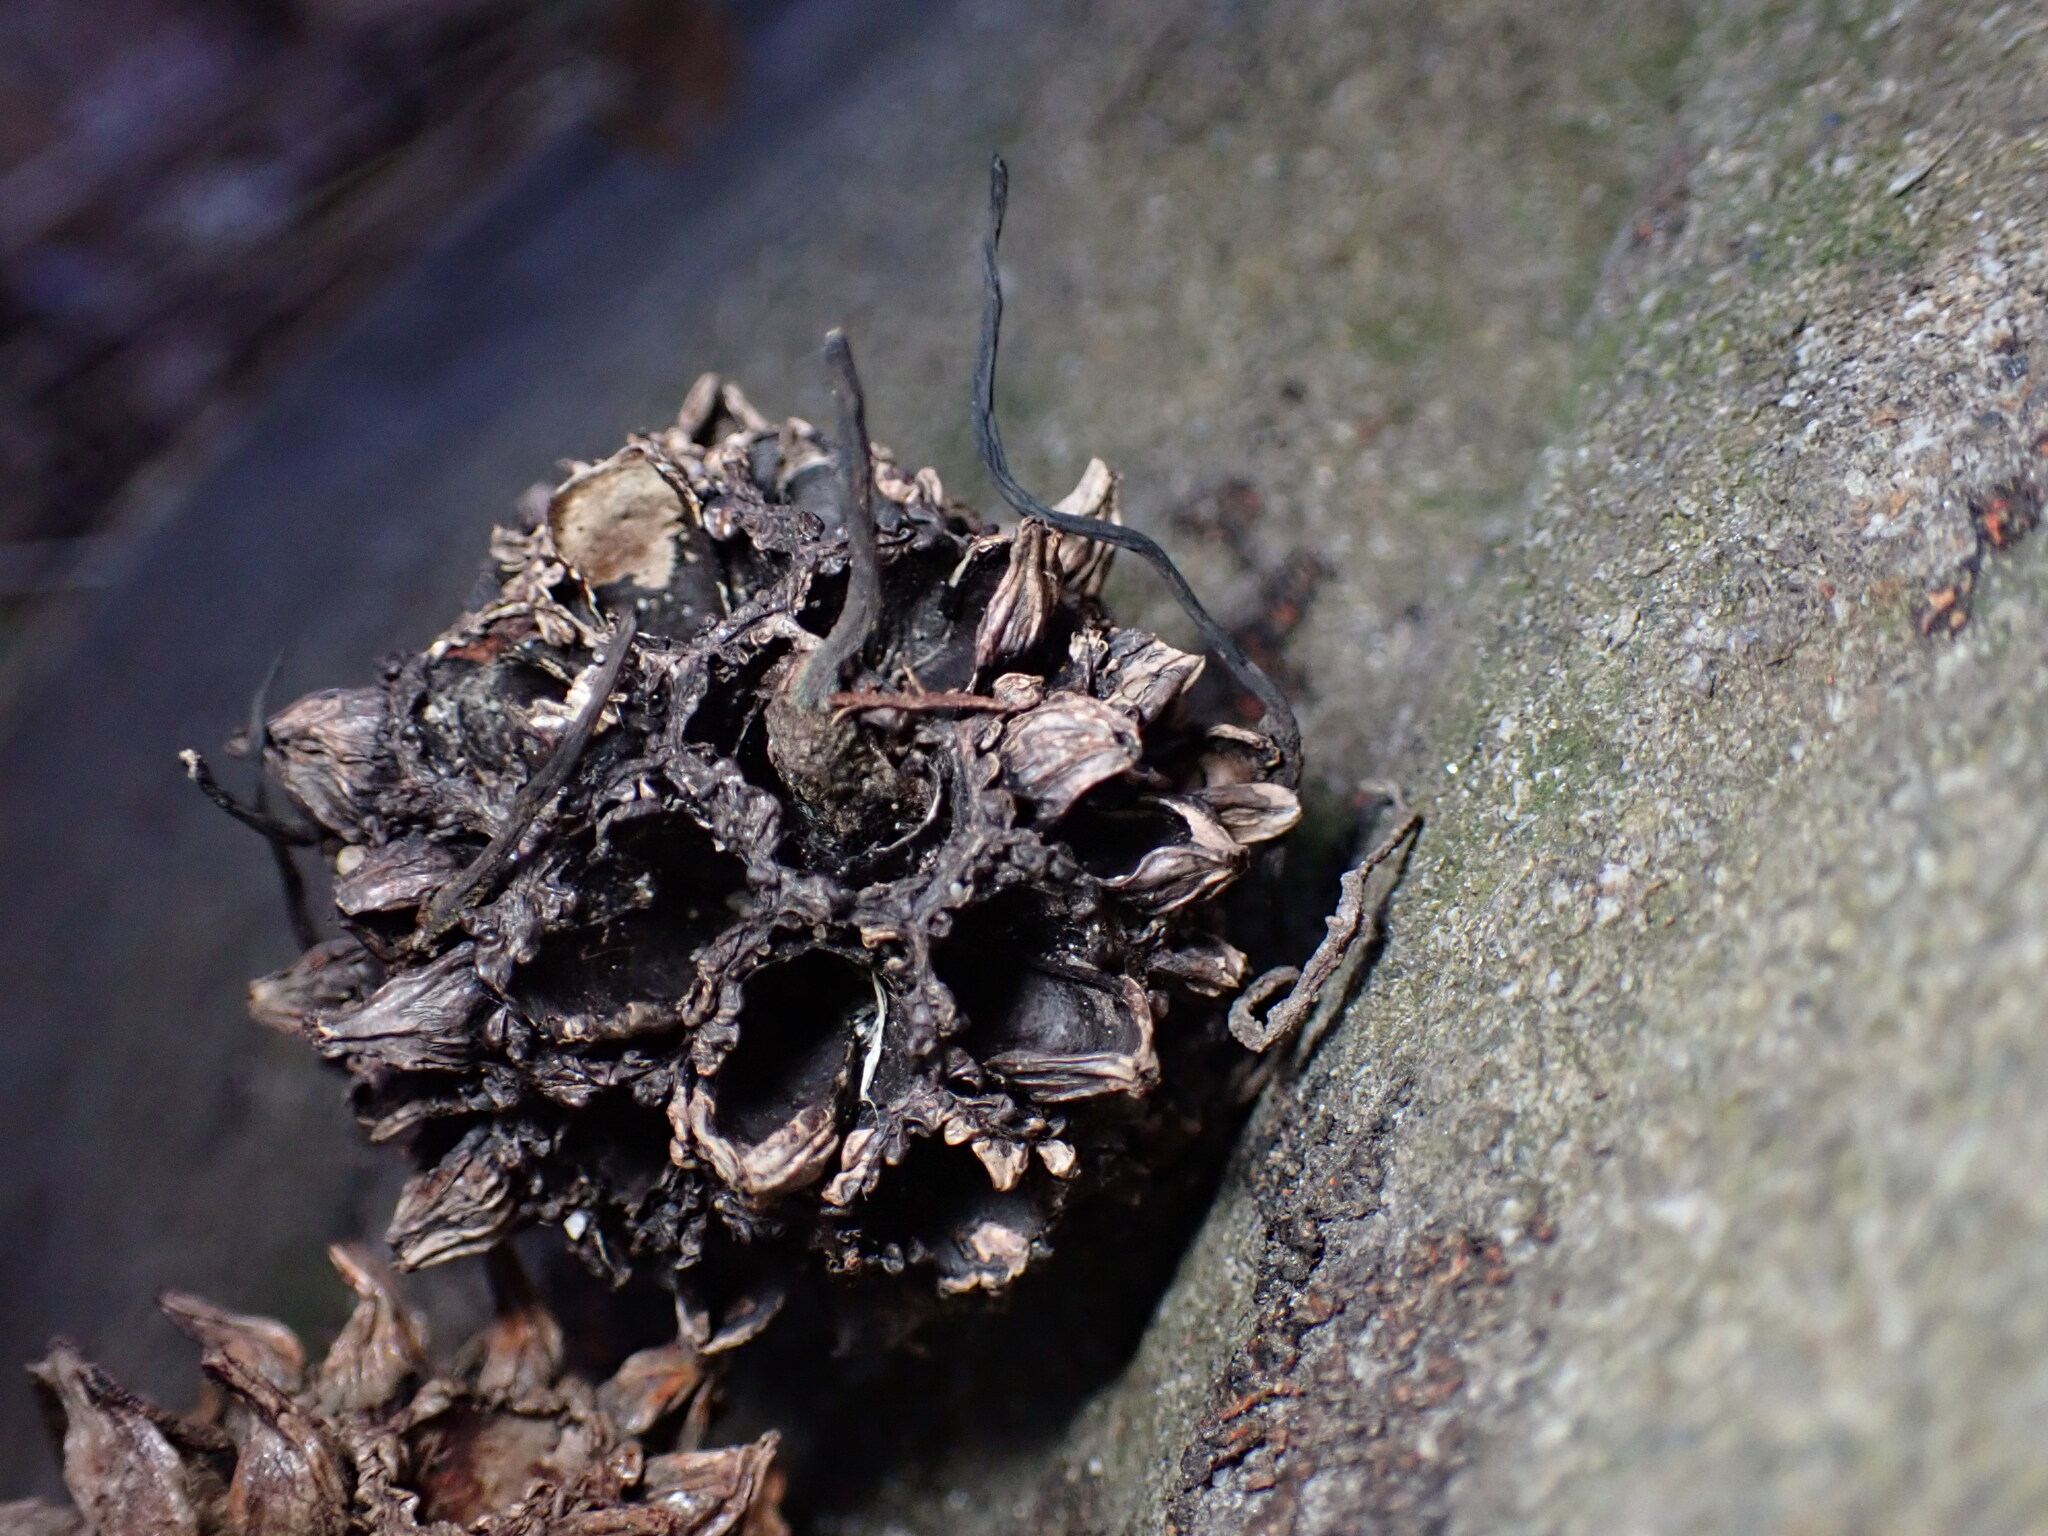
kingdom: Fungi
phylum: Ascomycota
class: Sordariomycetes
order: Xylariales
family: Xylariaceae
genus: Xylaria
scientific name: Xylaria liquidambaris
